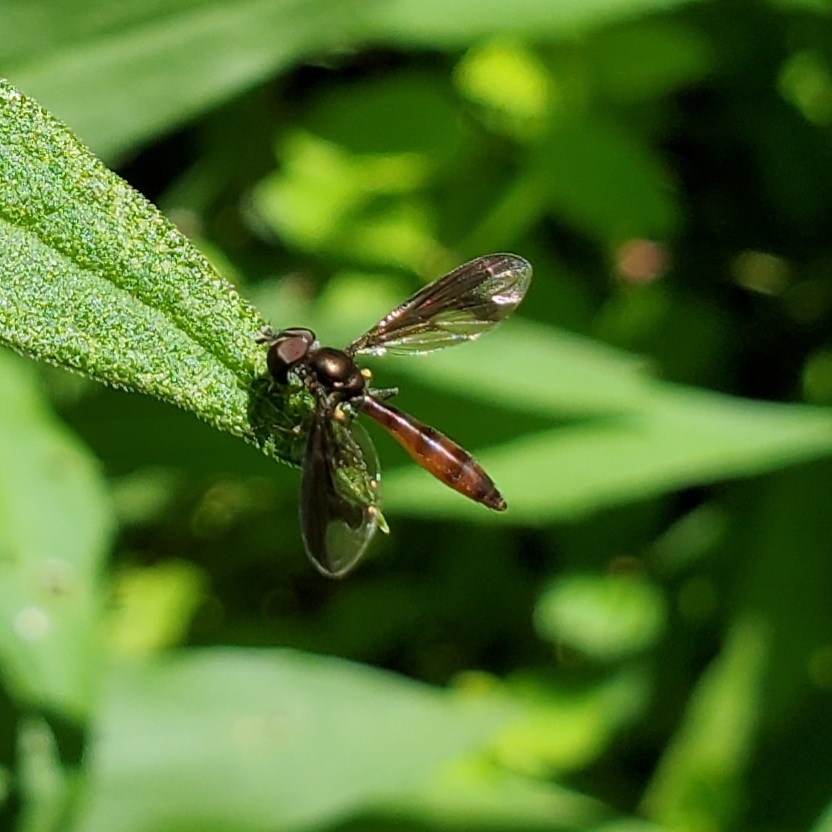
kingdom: Animalia
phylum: Arthropoda
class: Insecta
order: Diptera
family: Syrphidae
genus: Ocyptamus
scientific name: Ocyptamus fuscipennis
